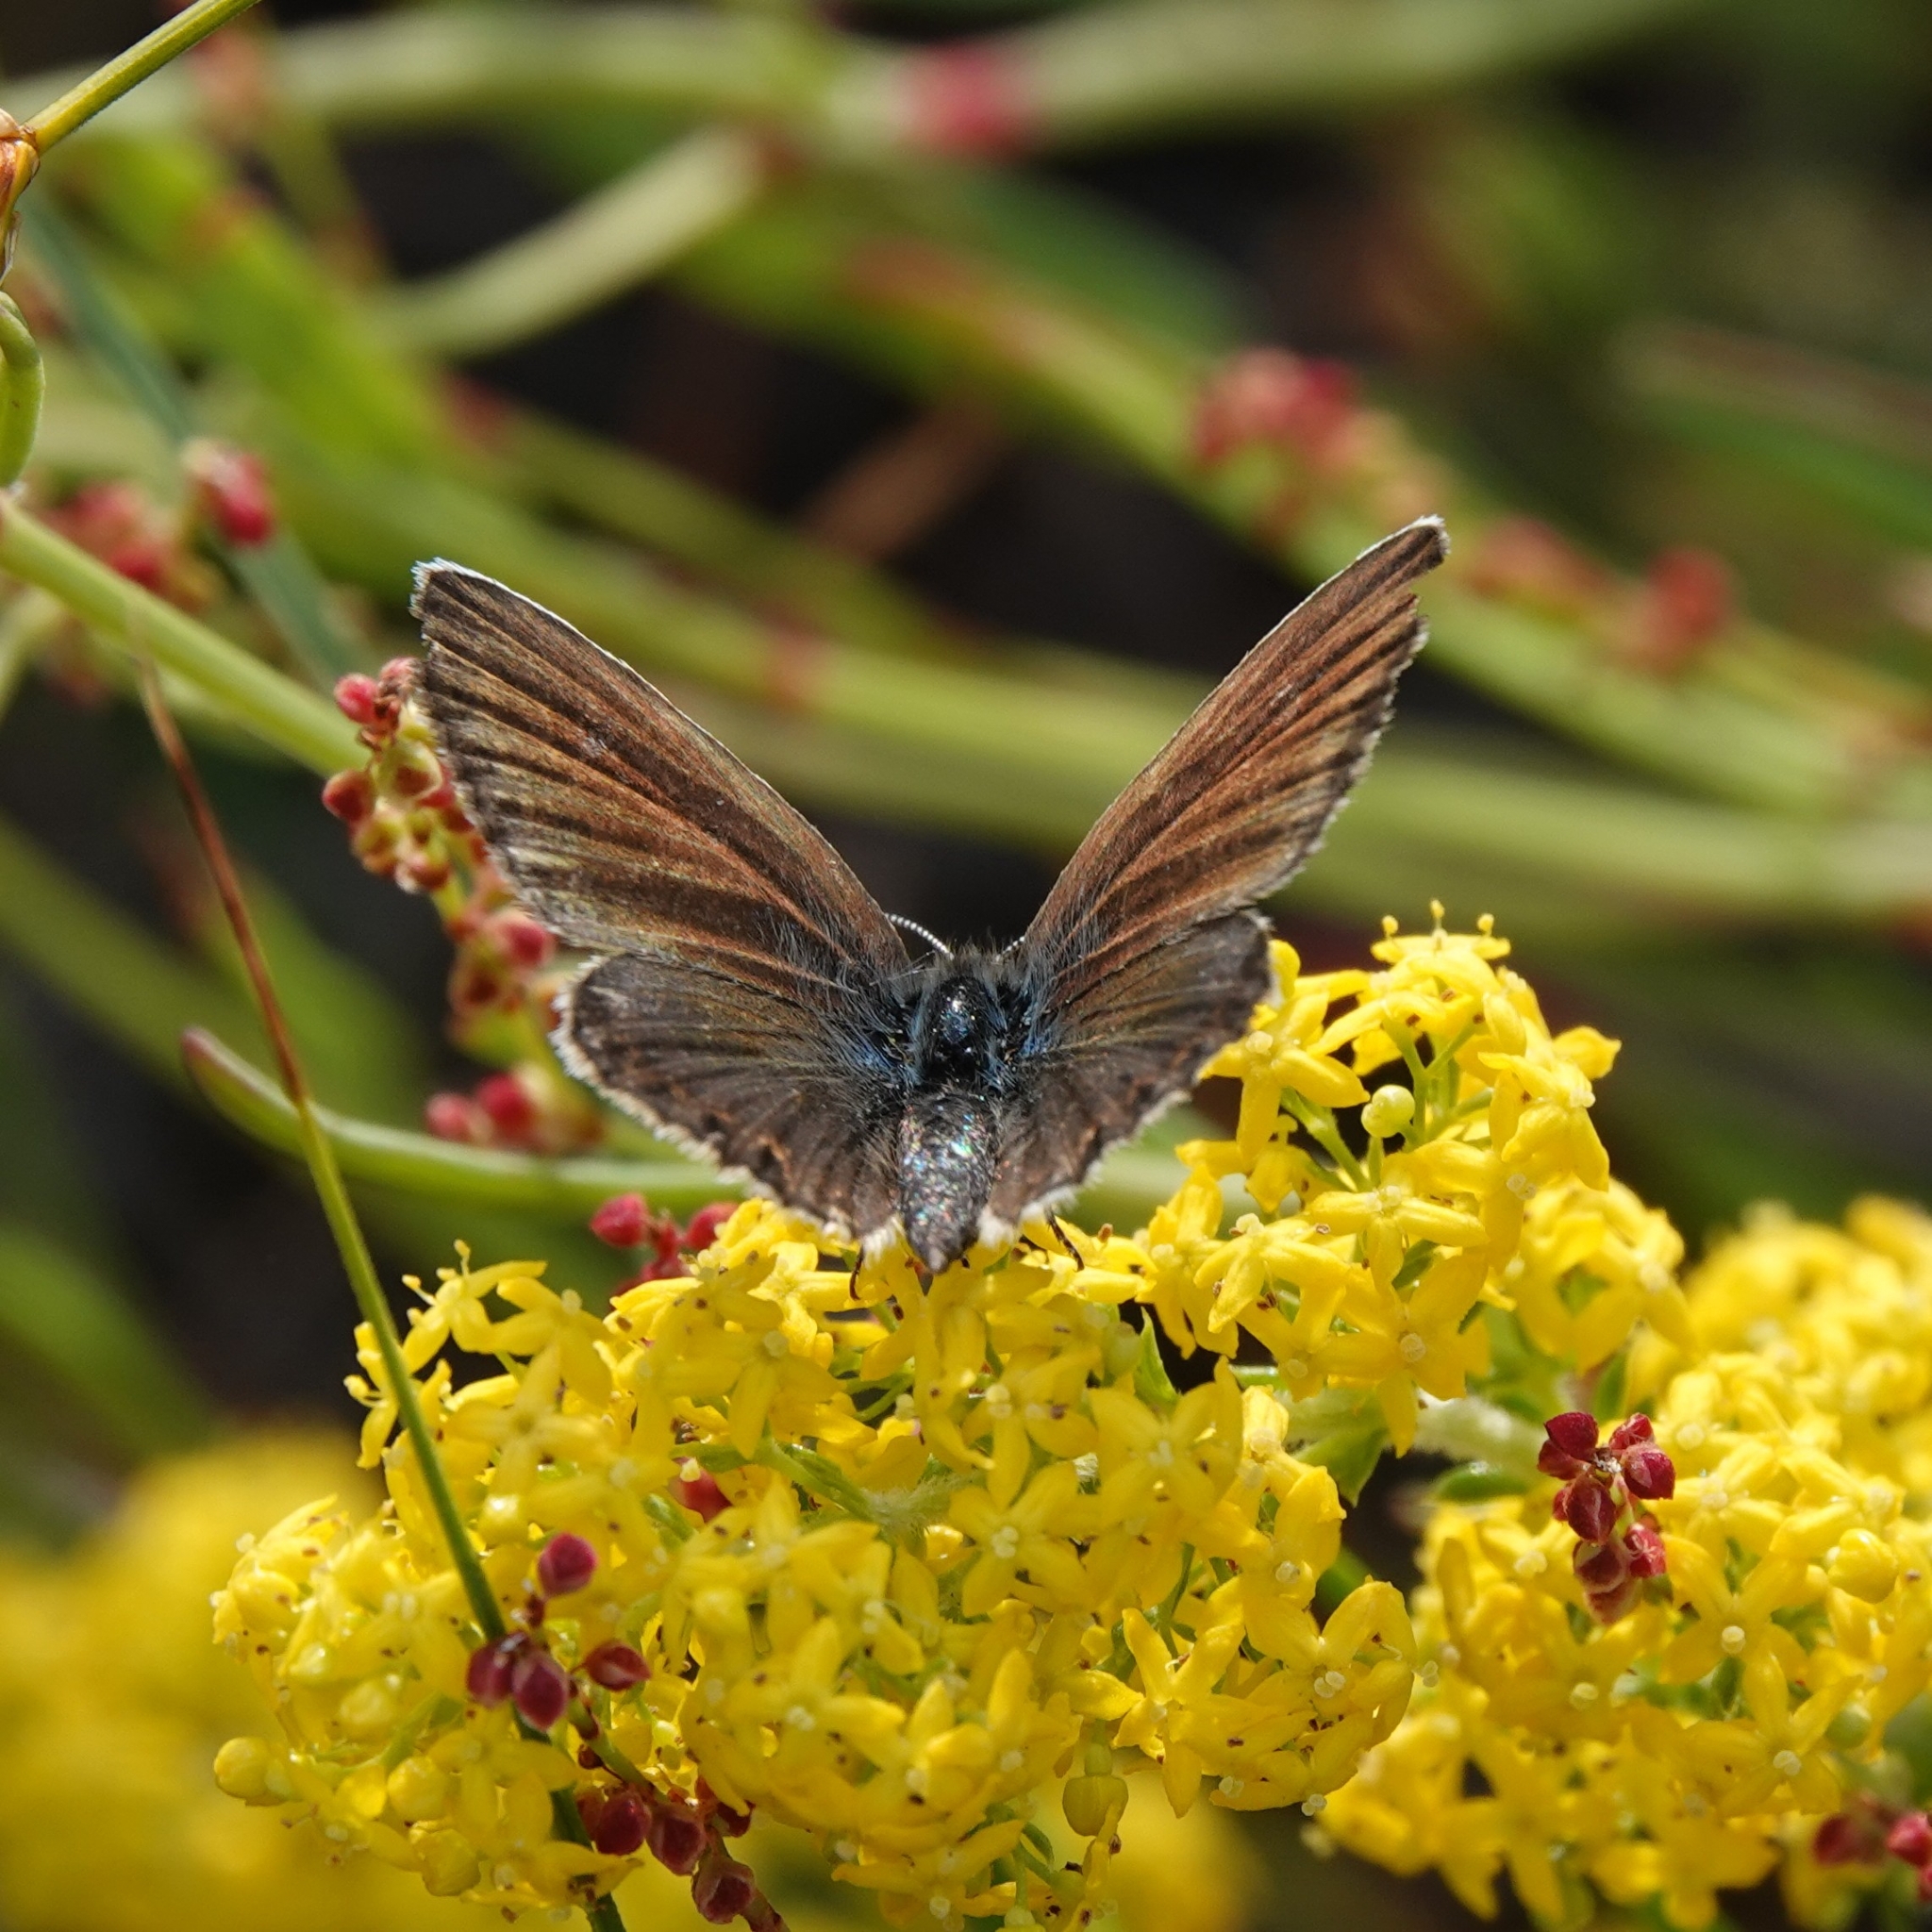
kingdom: Animalia
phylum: Arthropoda
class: Insecta
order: Lepidoptera
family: Lycaenidae
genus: Polyommatus
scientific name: Polyommatus icarus
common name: Common blue
